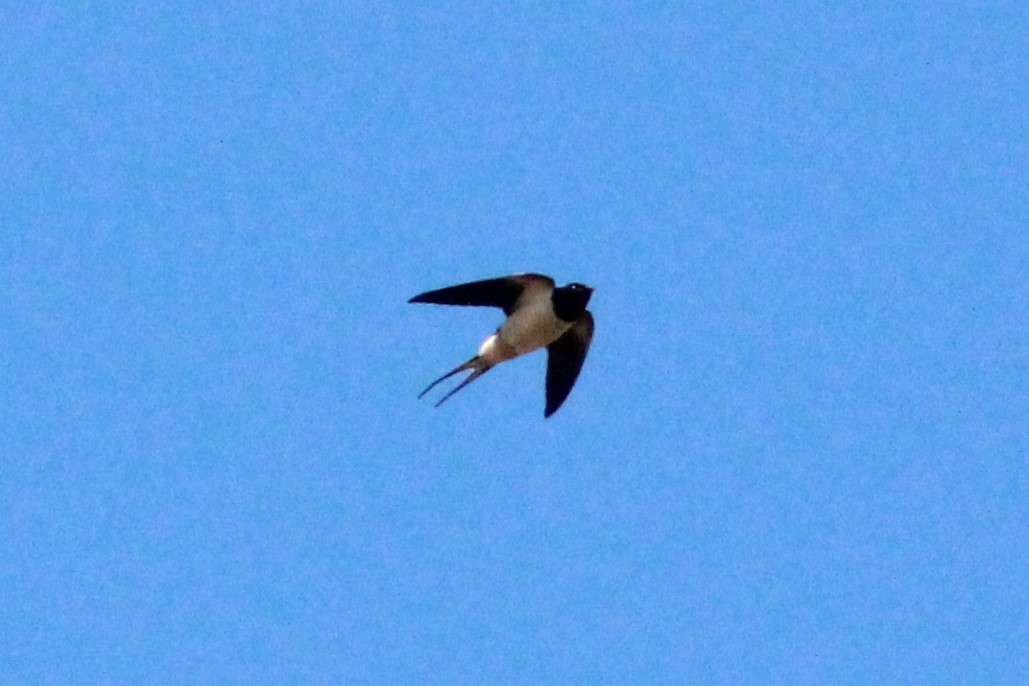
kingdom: Animalia
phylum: Chordata
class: Aves
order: Passeriformes
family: Hirundinidae
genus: Hirundo
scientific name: Hirundo rustica
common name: Barn swallow
